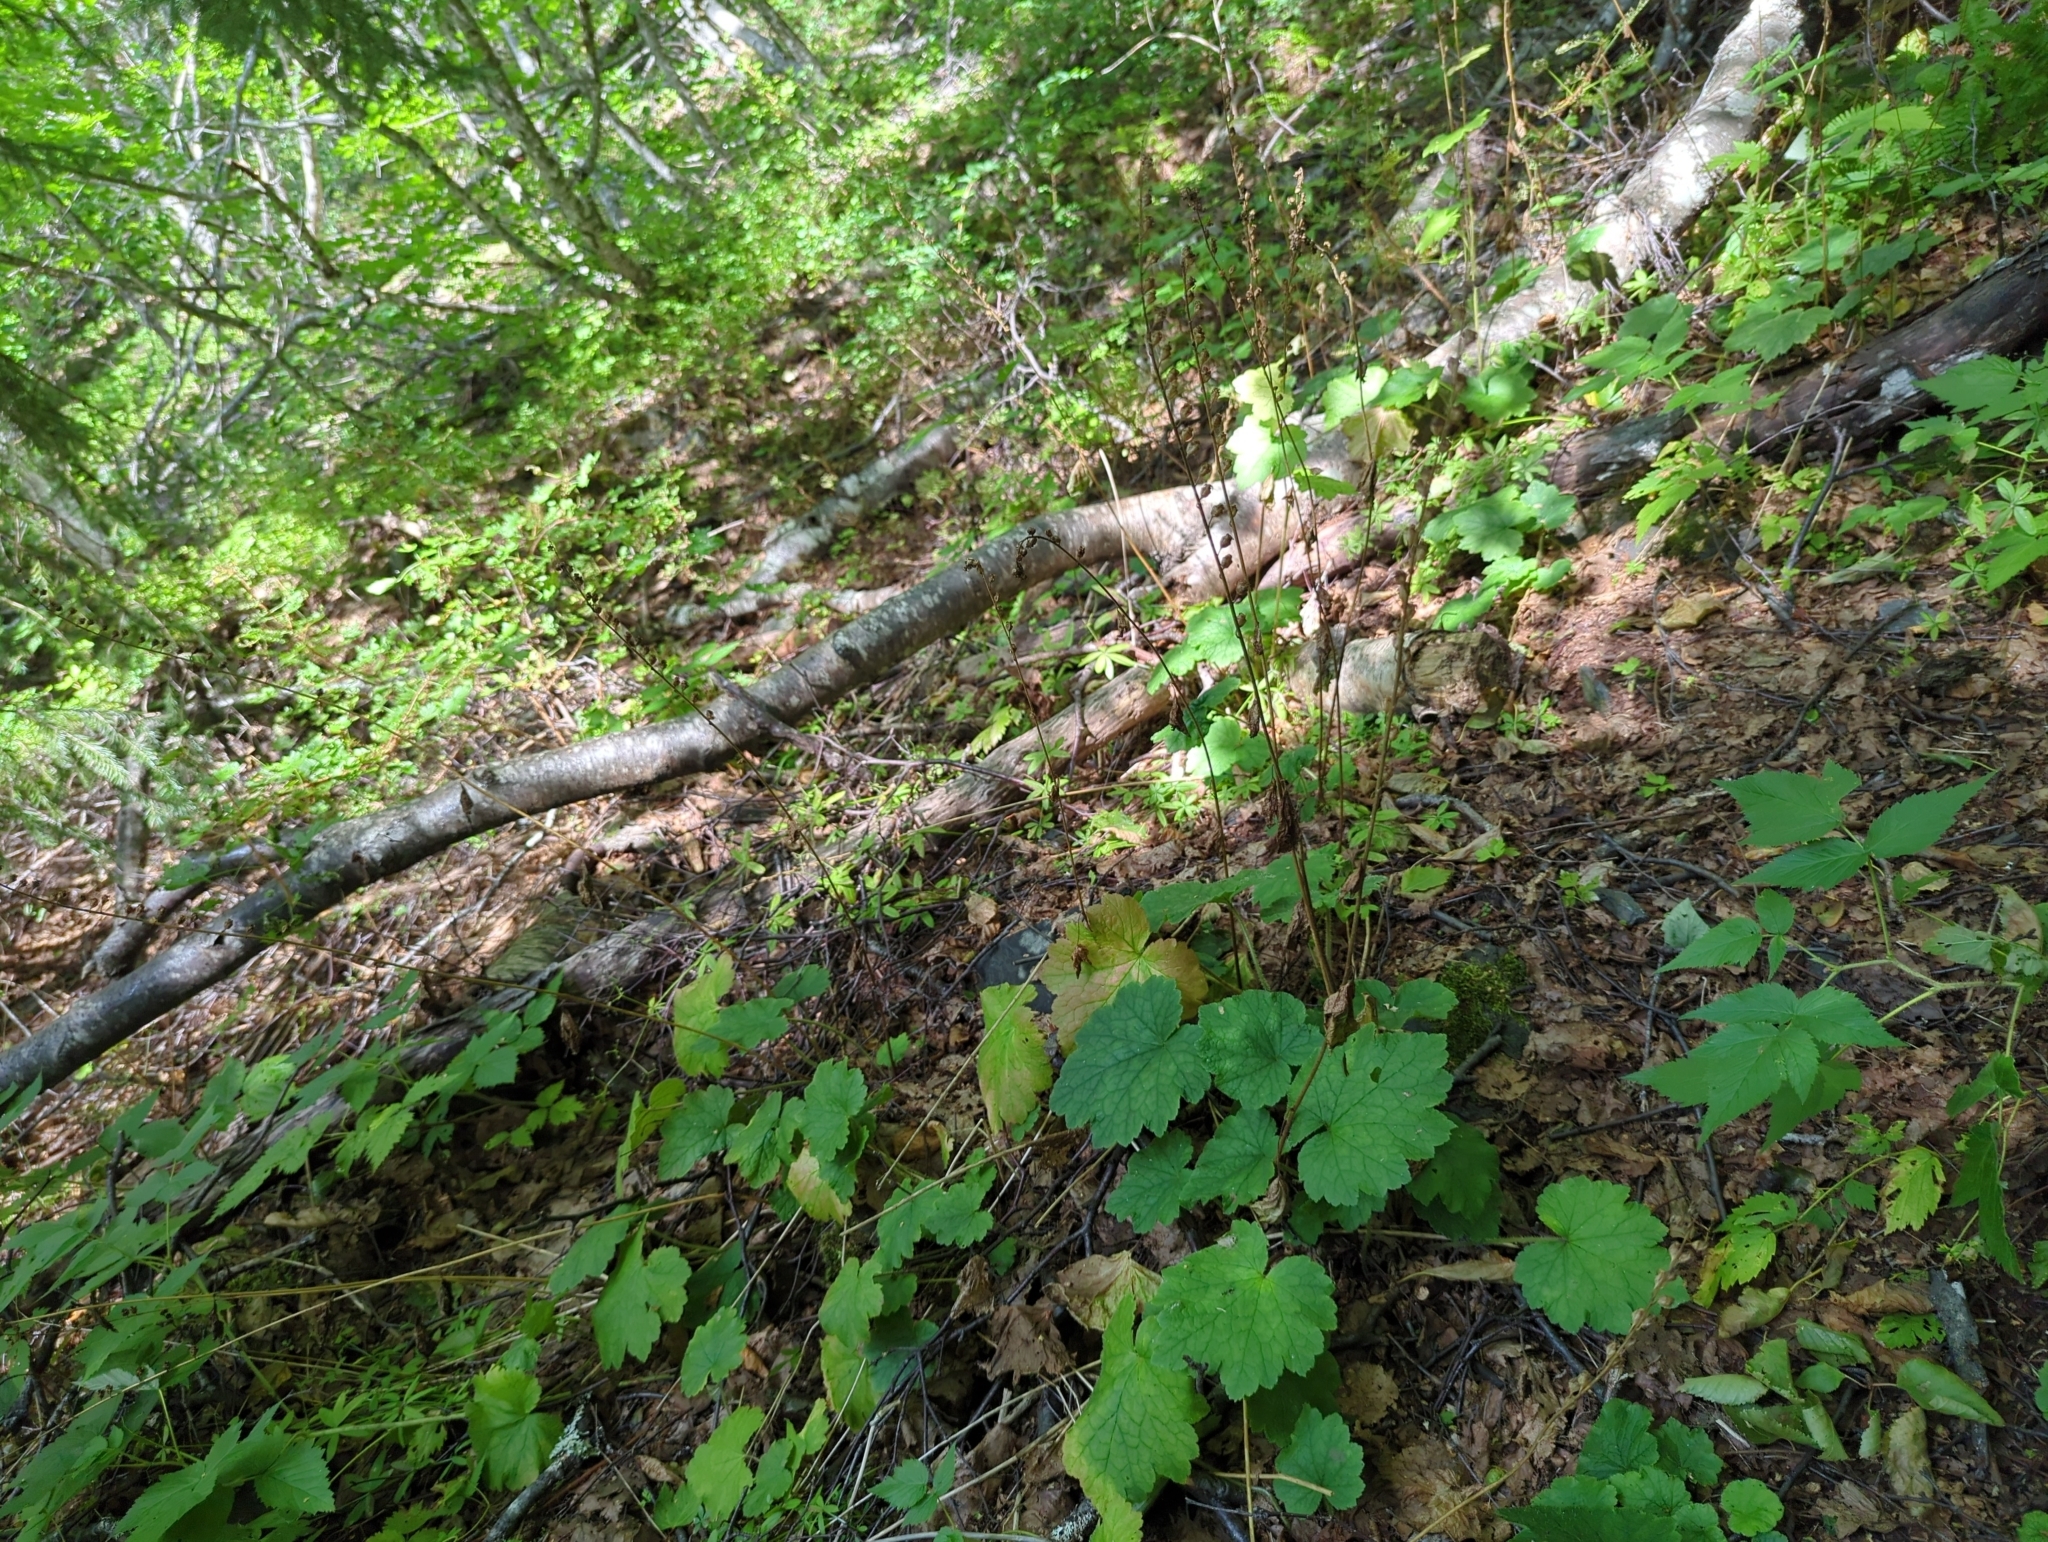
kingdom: Plantae
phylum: Tracheophyta
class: Magnoliopsida
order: Saxifragales
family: Saxifragaceae
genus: Tellima
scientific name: Tellima grandiflora
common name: Fringecups
